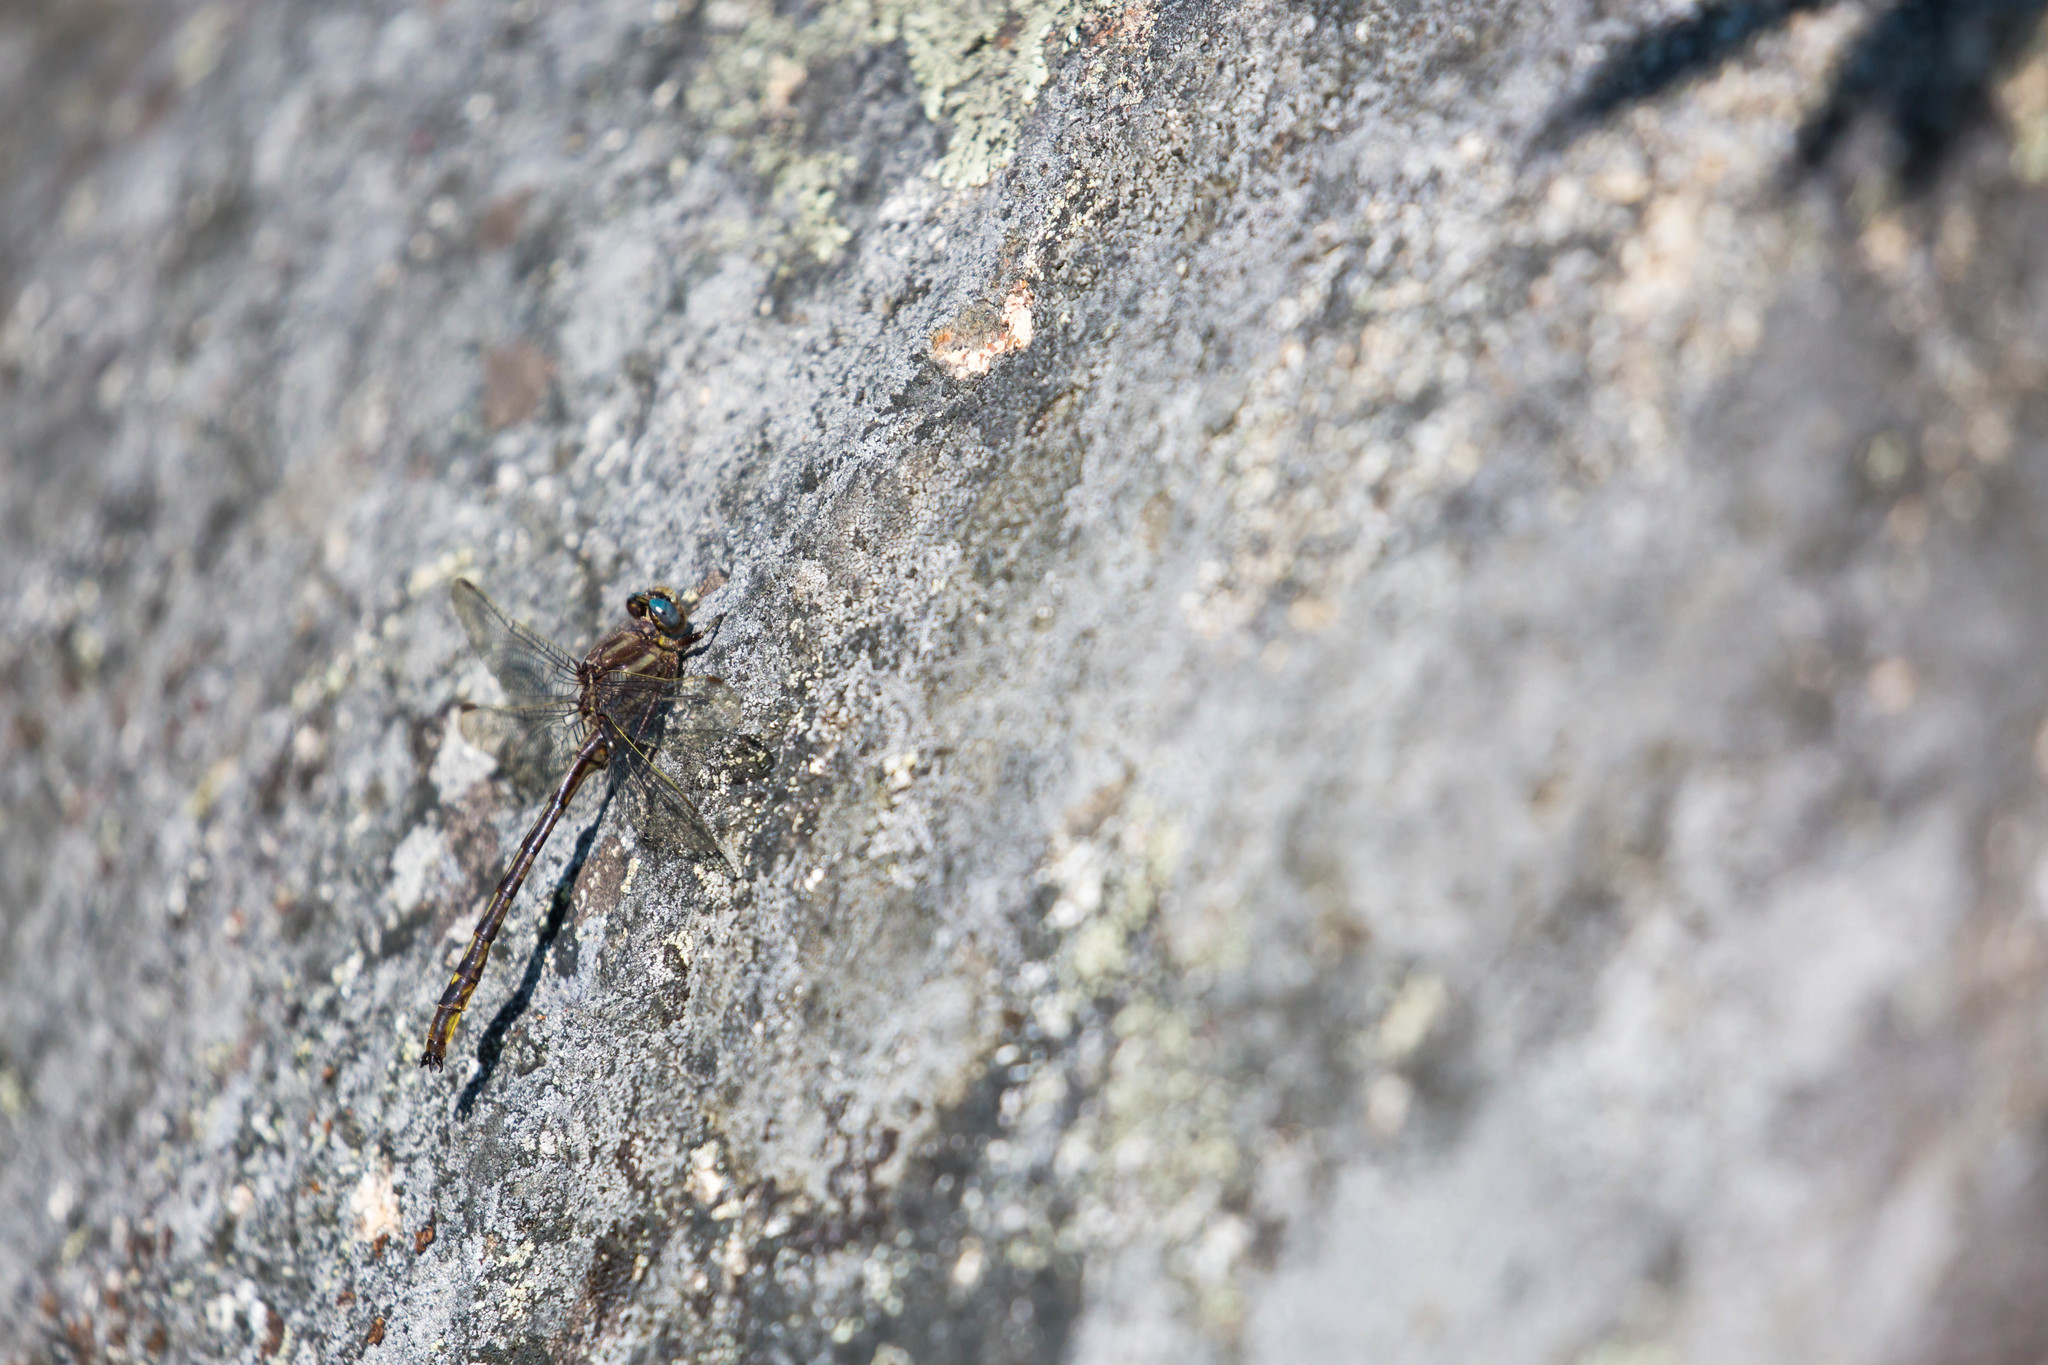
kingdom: Animalia
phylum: Arthropoda
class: Insecta
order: Odonata
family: Gomphidae
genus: Phanogomphus
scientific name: Phanogomphus spicatus
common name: Dusky clubtail
